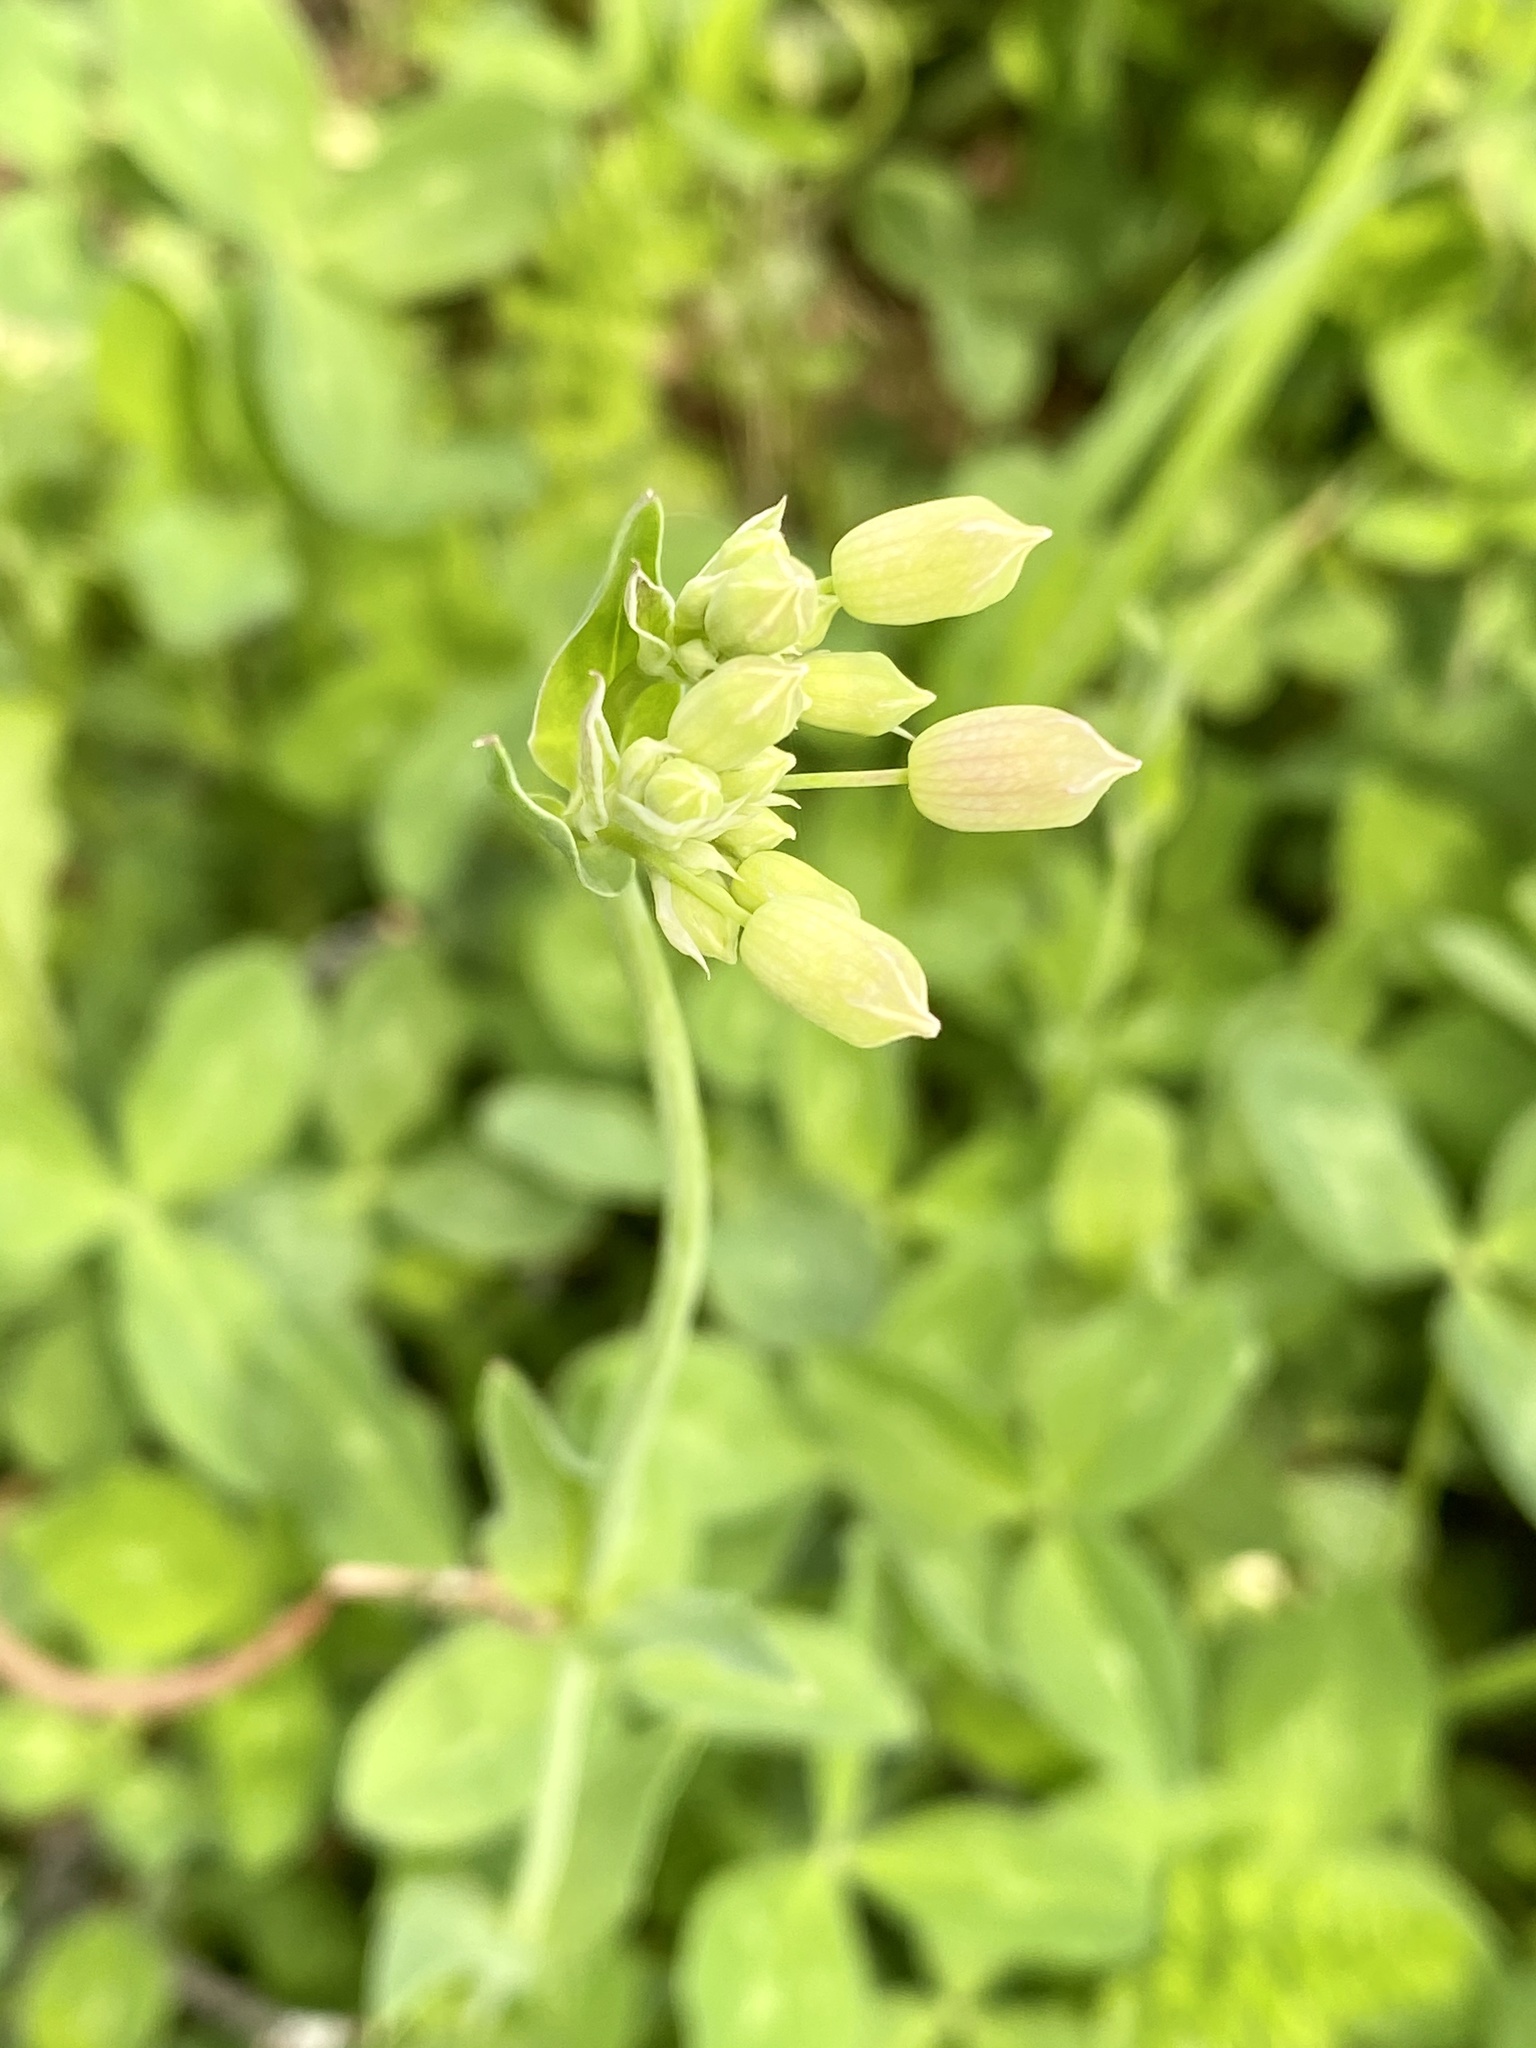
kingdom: Plantae
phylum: Tracheophyta
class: Magnoliopsida
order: Caryophyllales
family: Caryophyllaceae
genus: Silene
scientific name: Silene vulgaris
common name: Bladder campion
